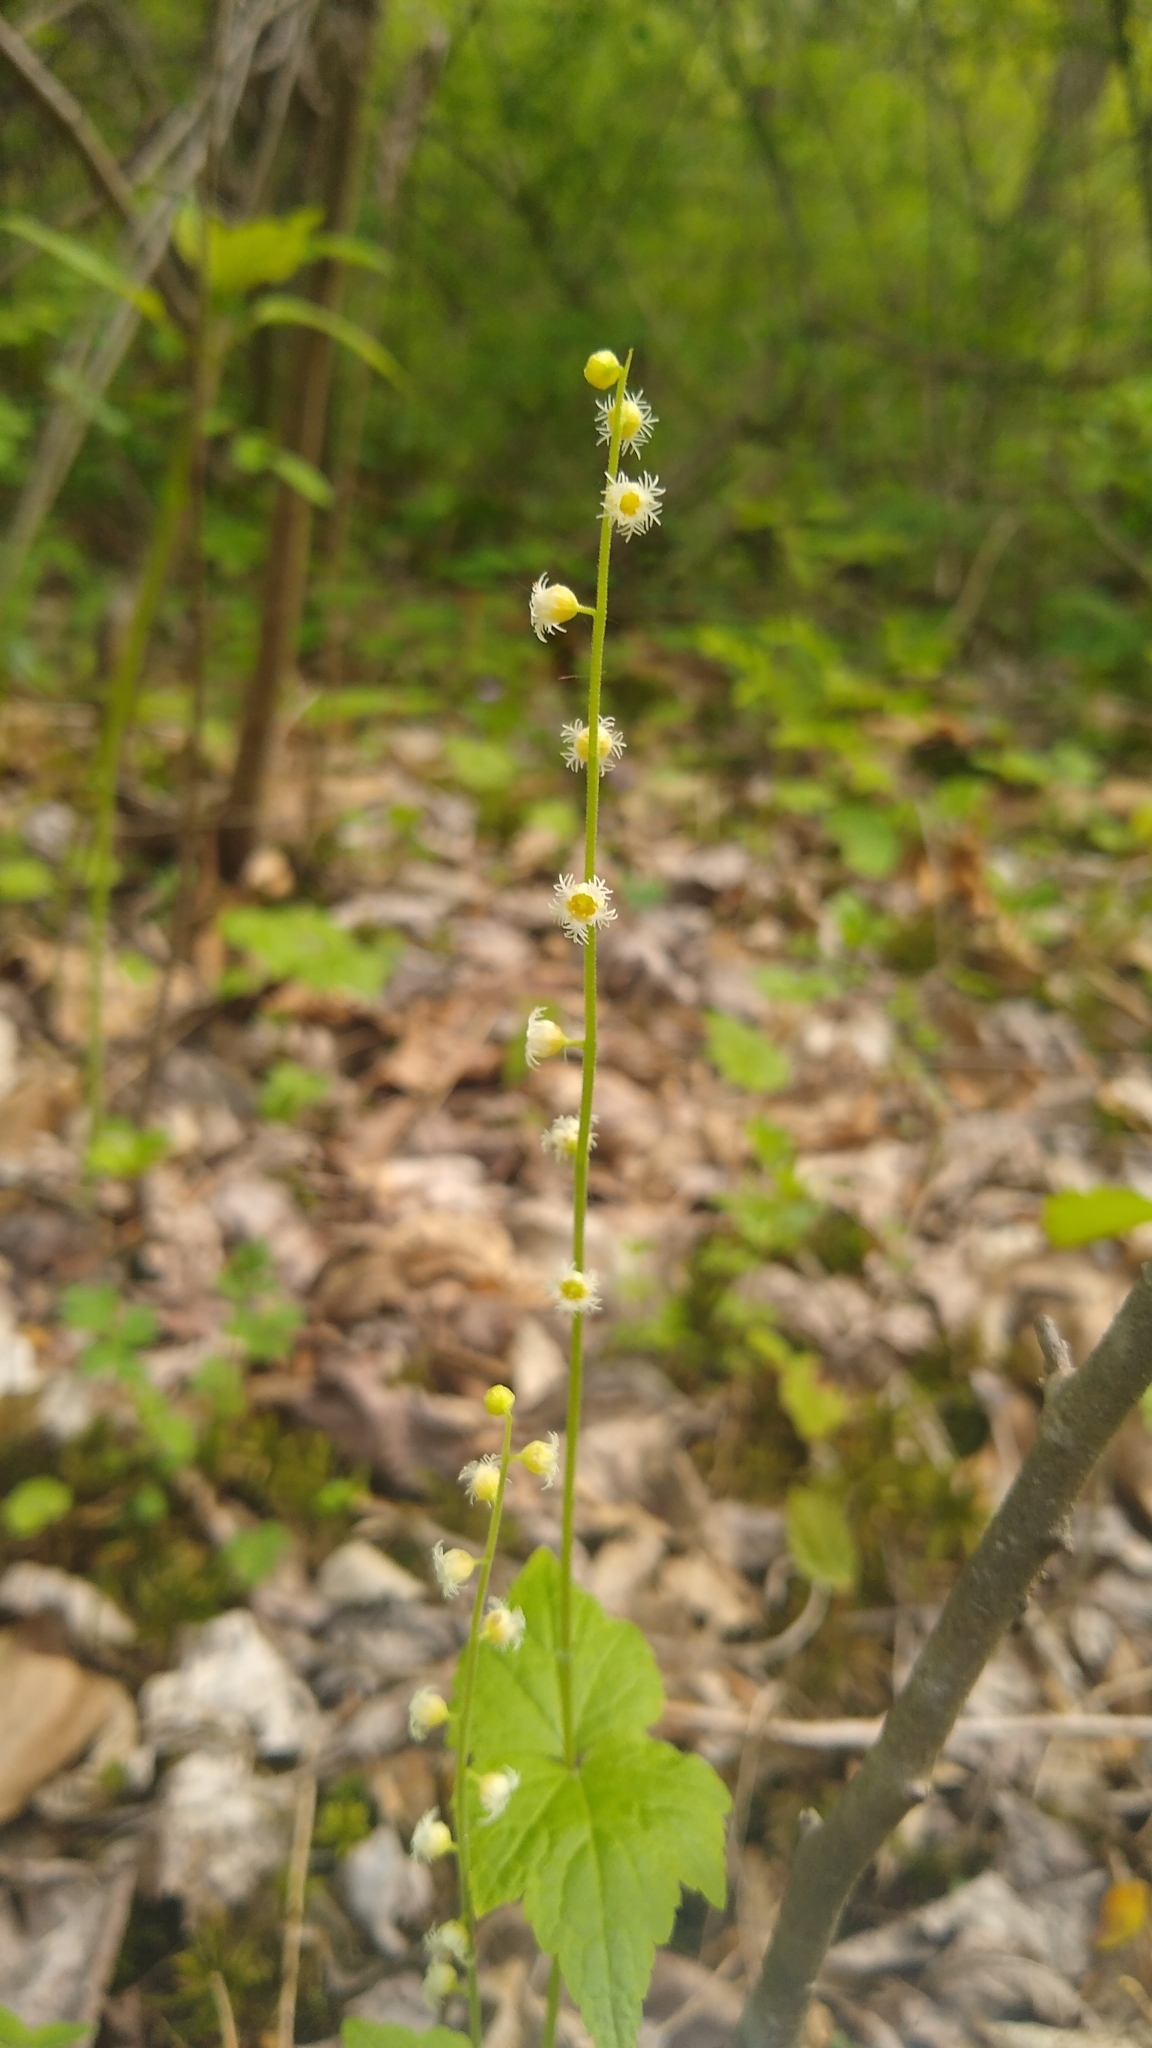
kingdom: Plantae
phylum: Tracheophyta
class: Magnoliopsida
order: Saxifragales
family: Saxifragaceae
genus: Mitella
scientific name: Mitella diphylla
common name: Coolwort
